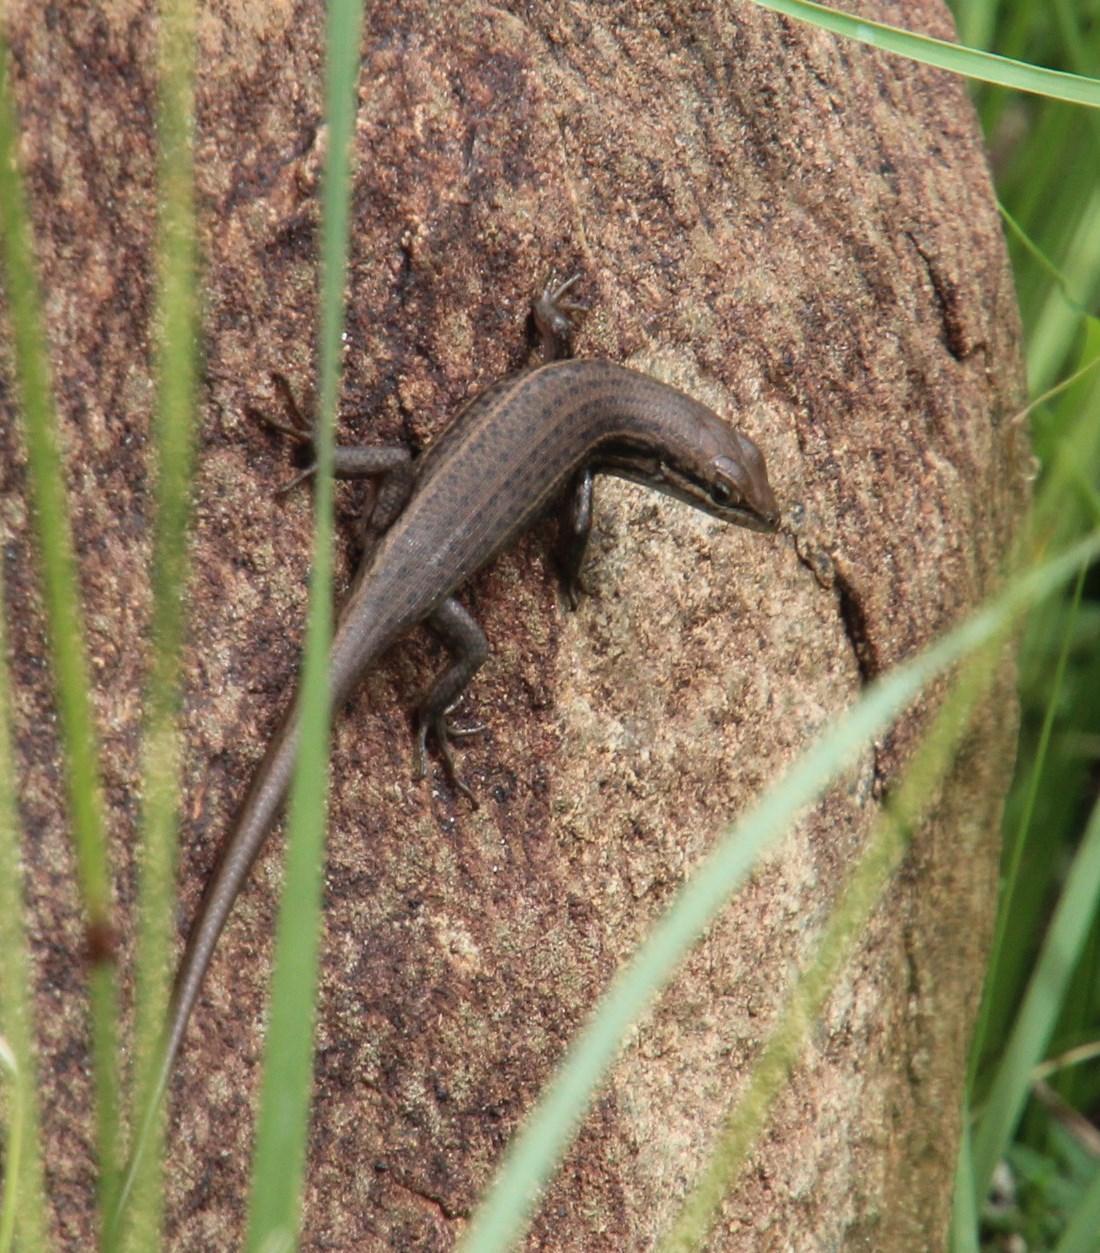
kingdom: Animalia
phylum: Chordata
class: Squamata
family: Scincidae
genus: Trachylepis
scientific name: Trachylepis variegata
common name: Variegated skink
